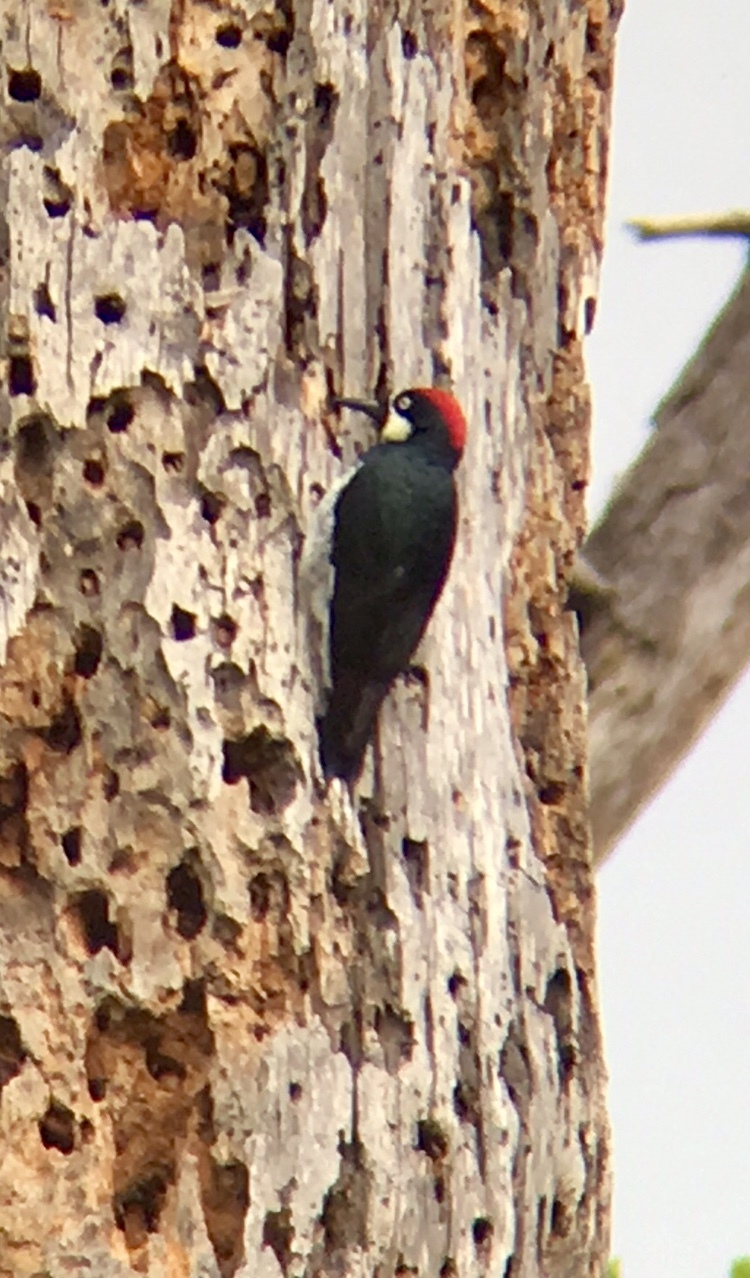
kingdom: Animalia
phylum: Chordata
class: Aves
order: Piciformes
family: Picidae
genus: Melanerpes
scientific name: Melanerpes formicivorus
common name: Acorn woodpecker
